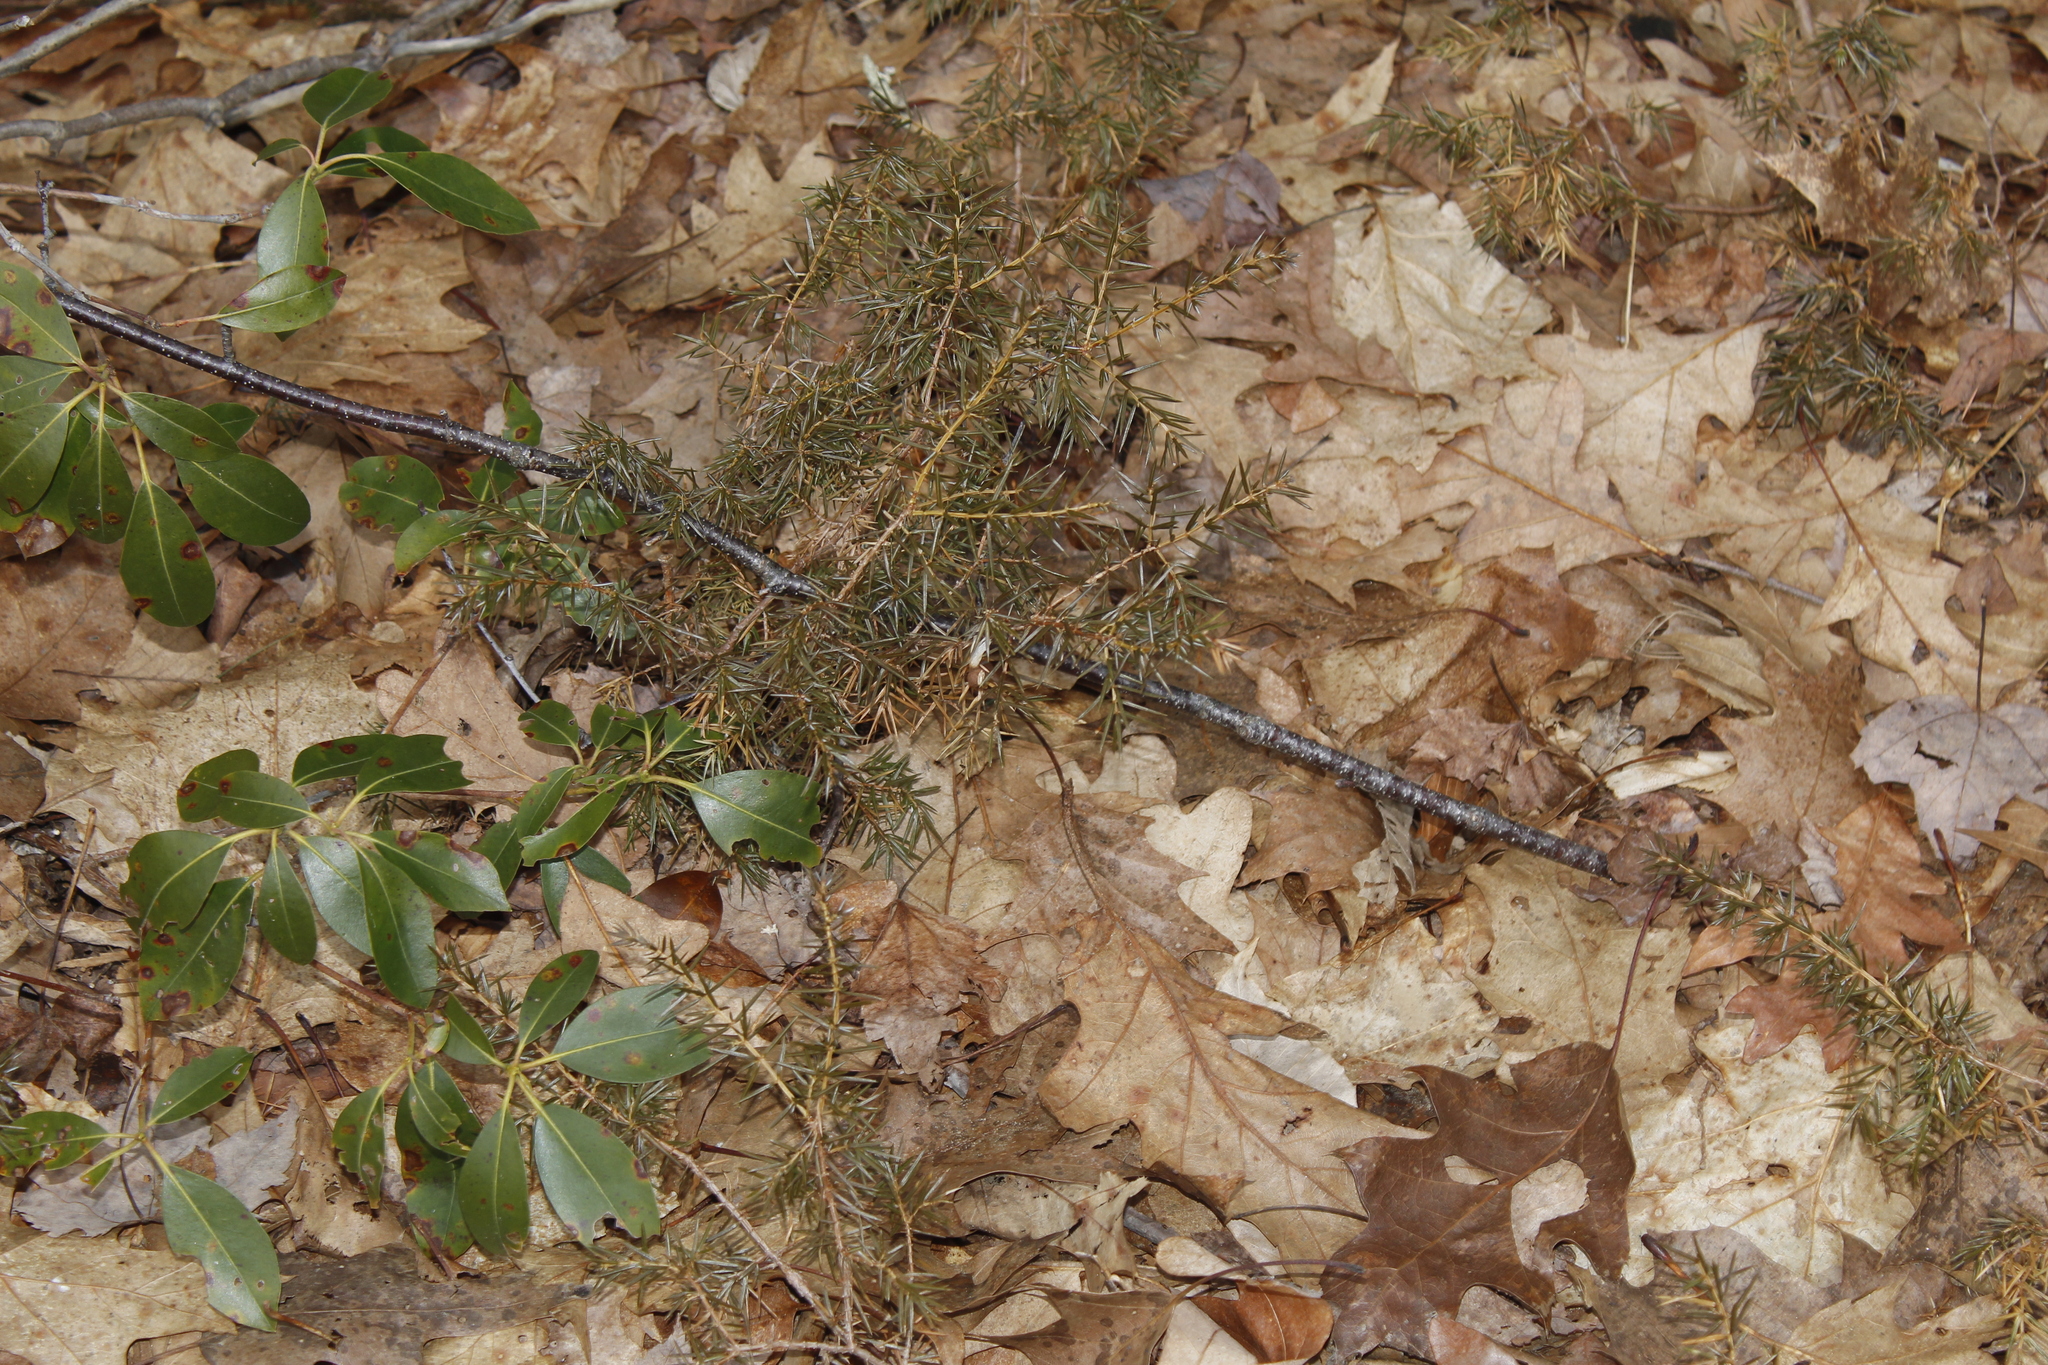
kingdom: Plantae
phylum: Tracheophyta
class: Pinopsida
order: Pinales
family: Cupressaceae
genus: Juniperus
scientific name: Juniperus communis
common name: Common juniper
